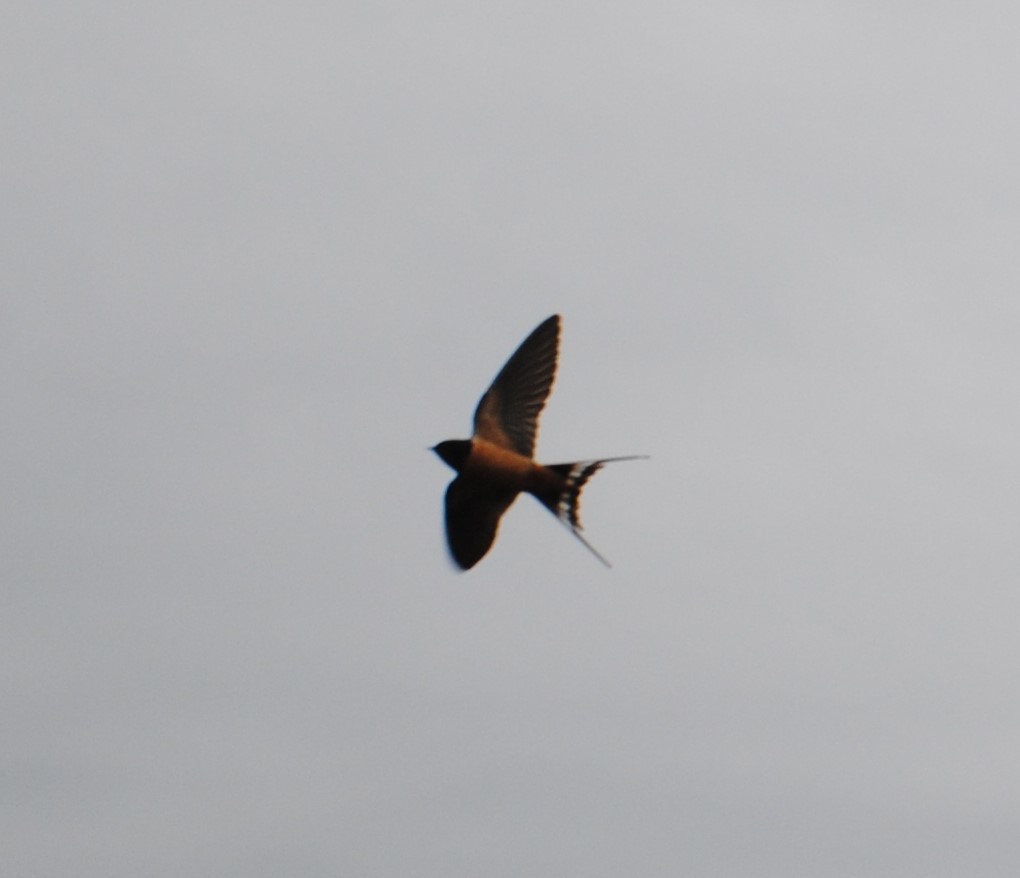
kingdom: Animalia
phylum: Chordata
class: Aves
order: Passeriformes
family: Hirundinidae
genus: Hirundo
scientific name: Hirundo rustica
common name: Barn swallow
